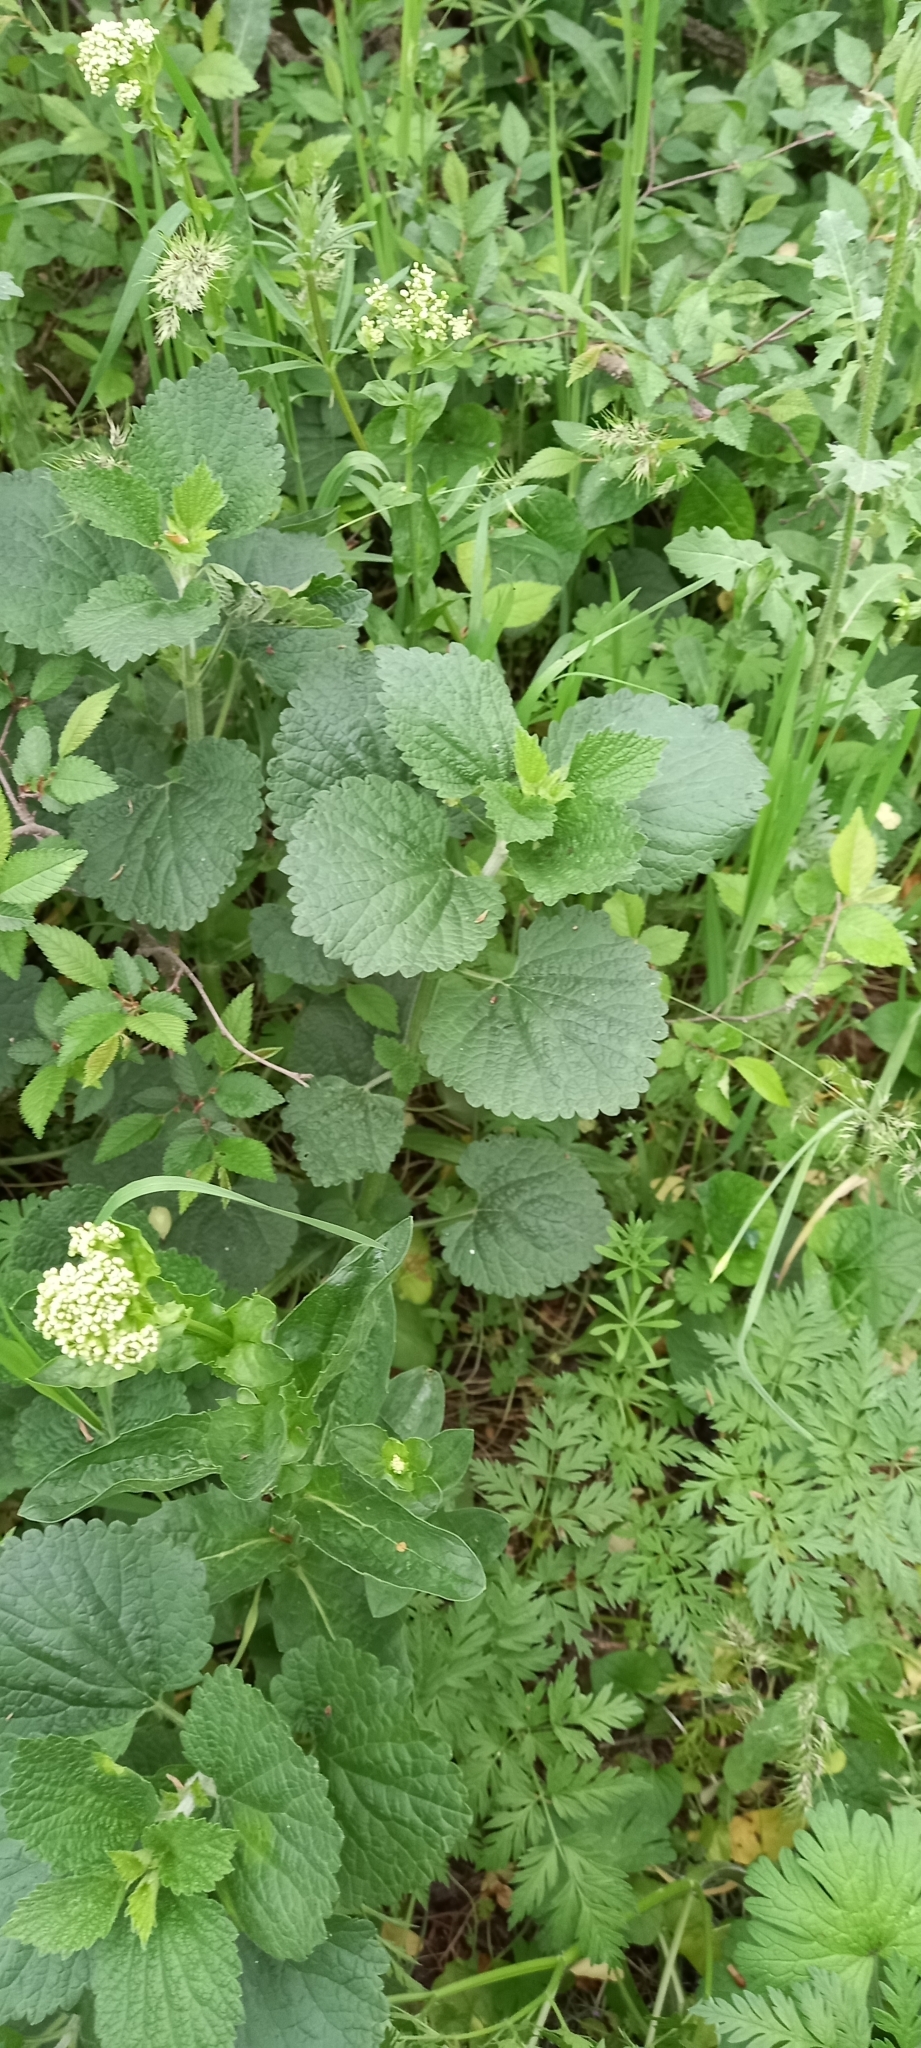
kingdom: Plantae
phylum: Tracheophyta
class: Magnoliopsida
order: Lamiales
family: Lamiaceae
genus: Ballota
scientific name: Ballota nigra
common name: Black horehound
